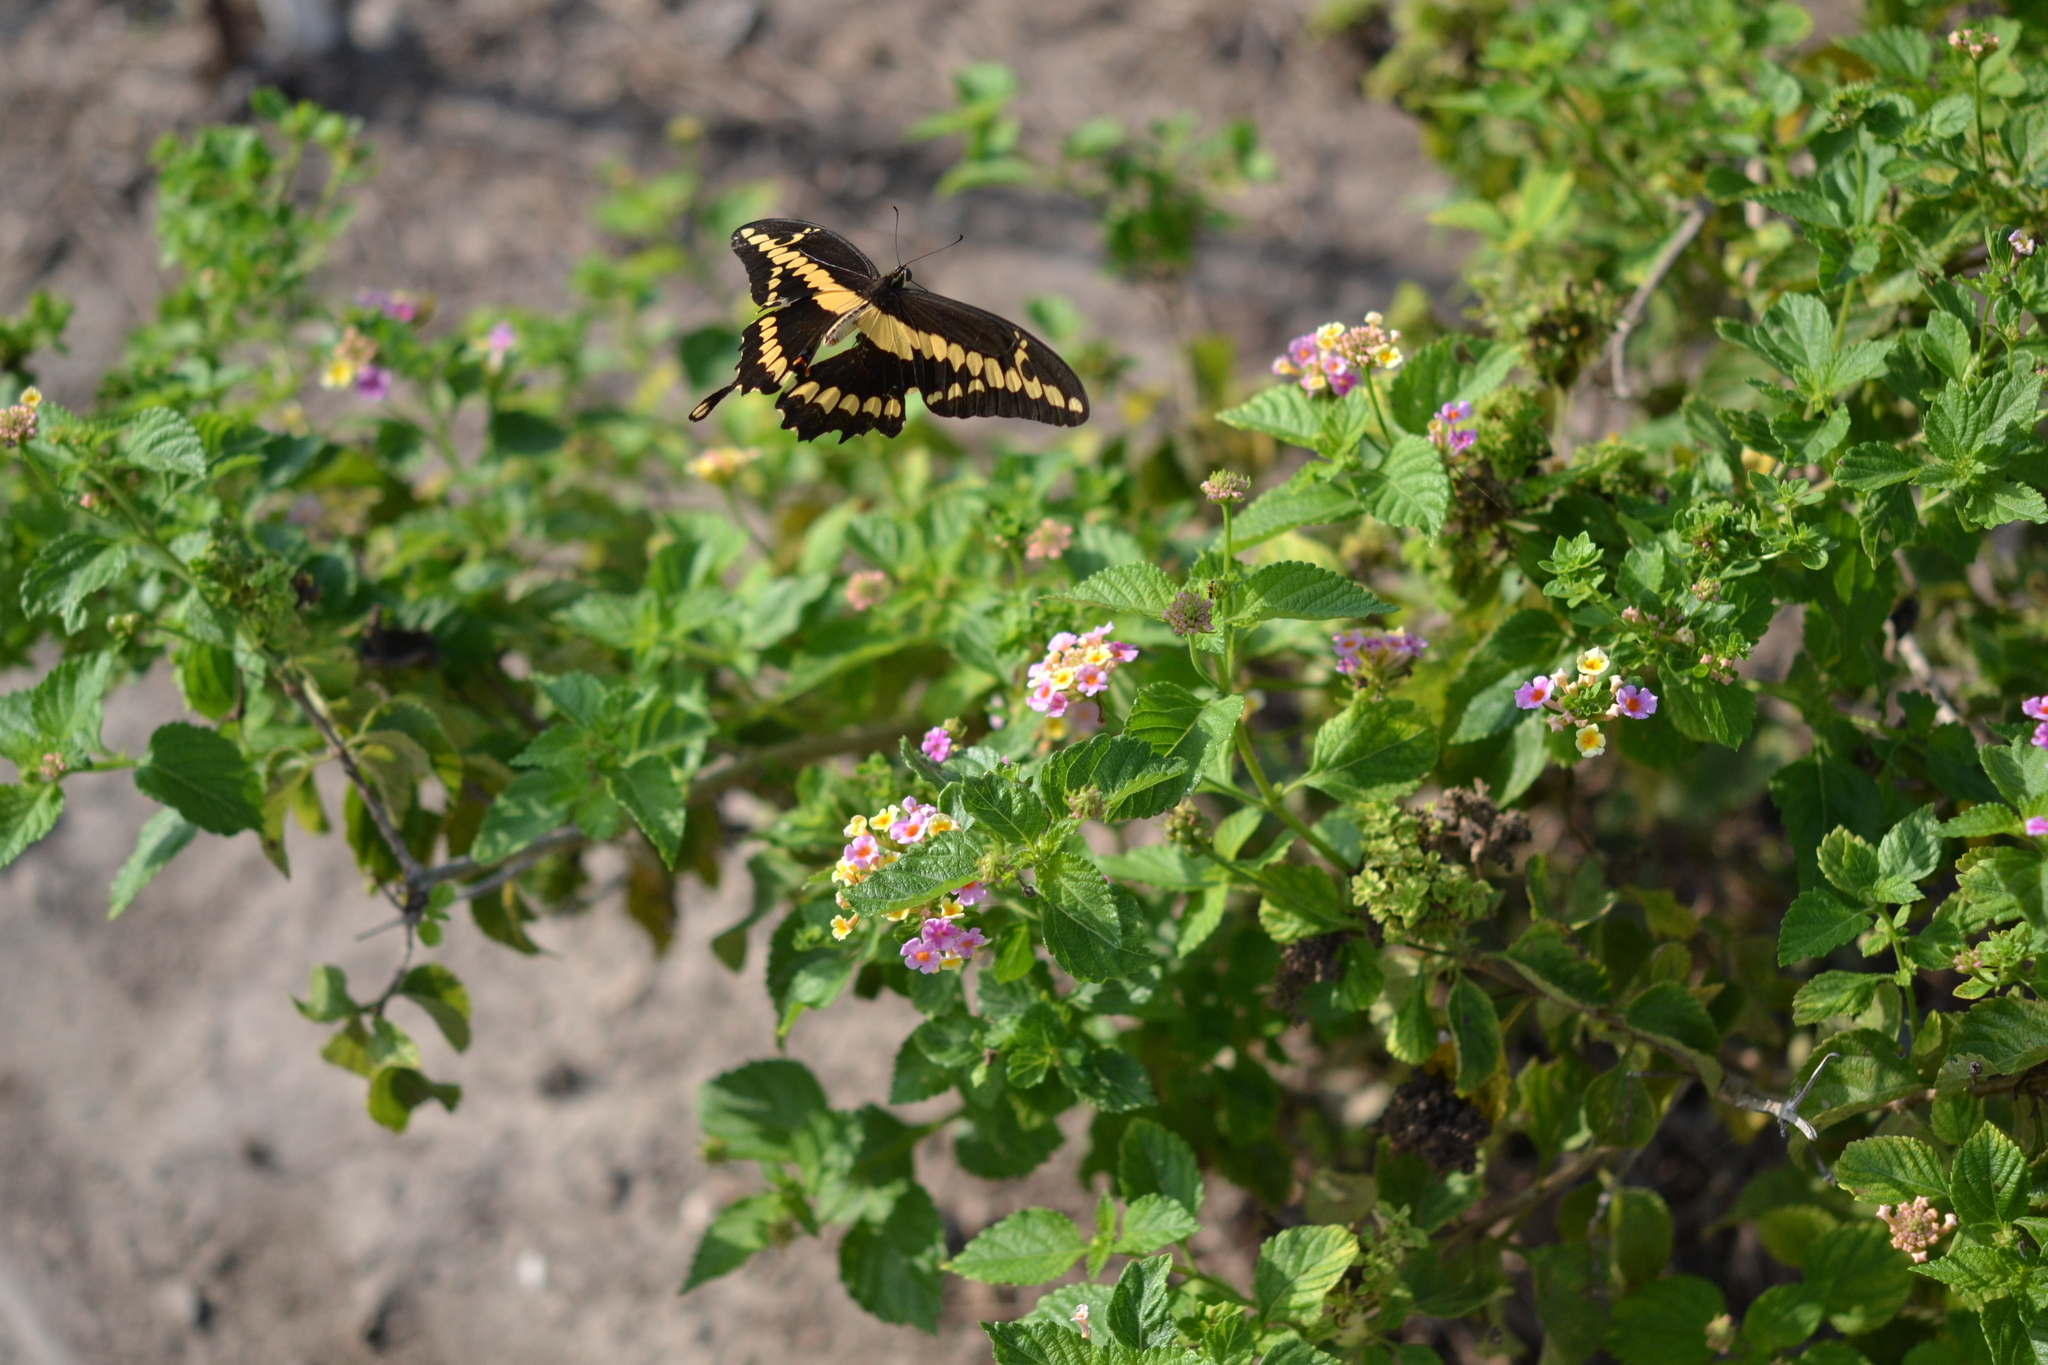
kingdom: Animalia
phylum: Arthropoda
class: Insecta
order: Lepidoptera
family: Papilionidae
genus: Papilio
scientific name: Papilio rumiko
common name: Western giant swallowtail
